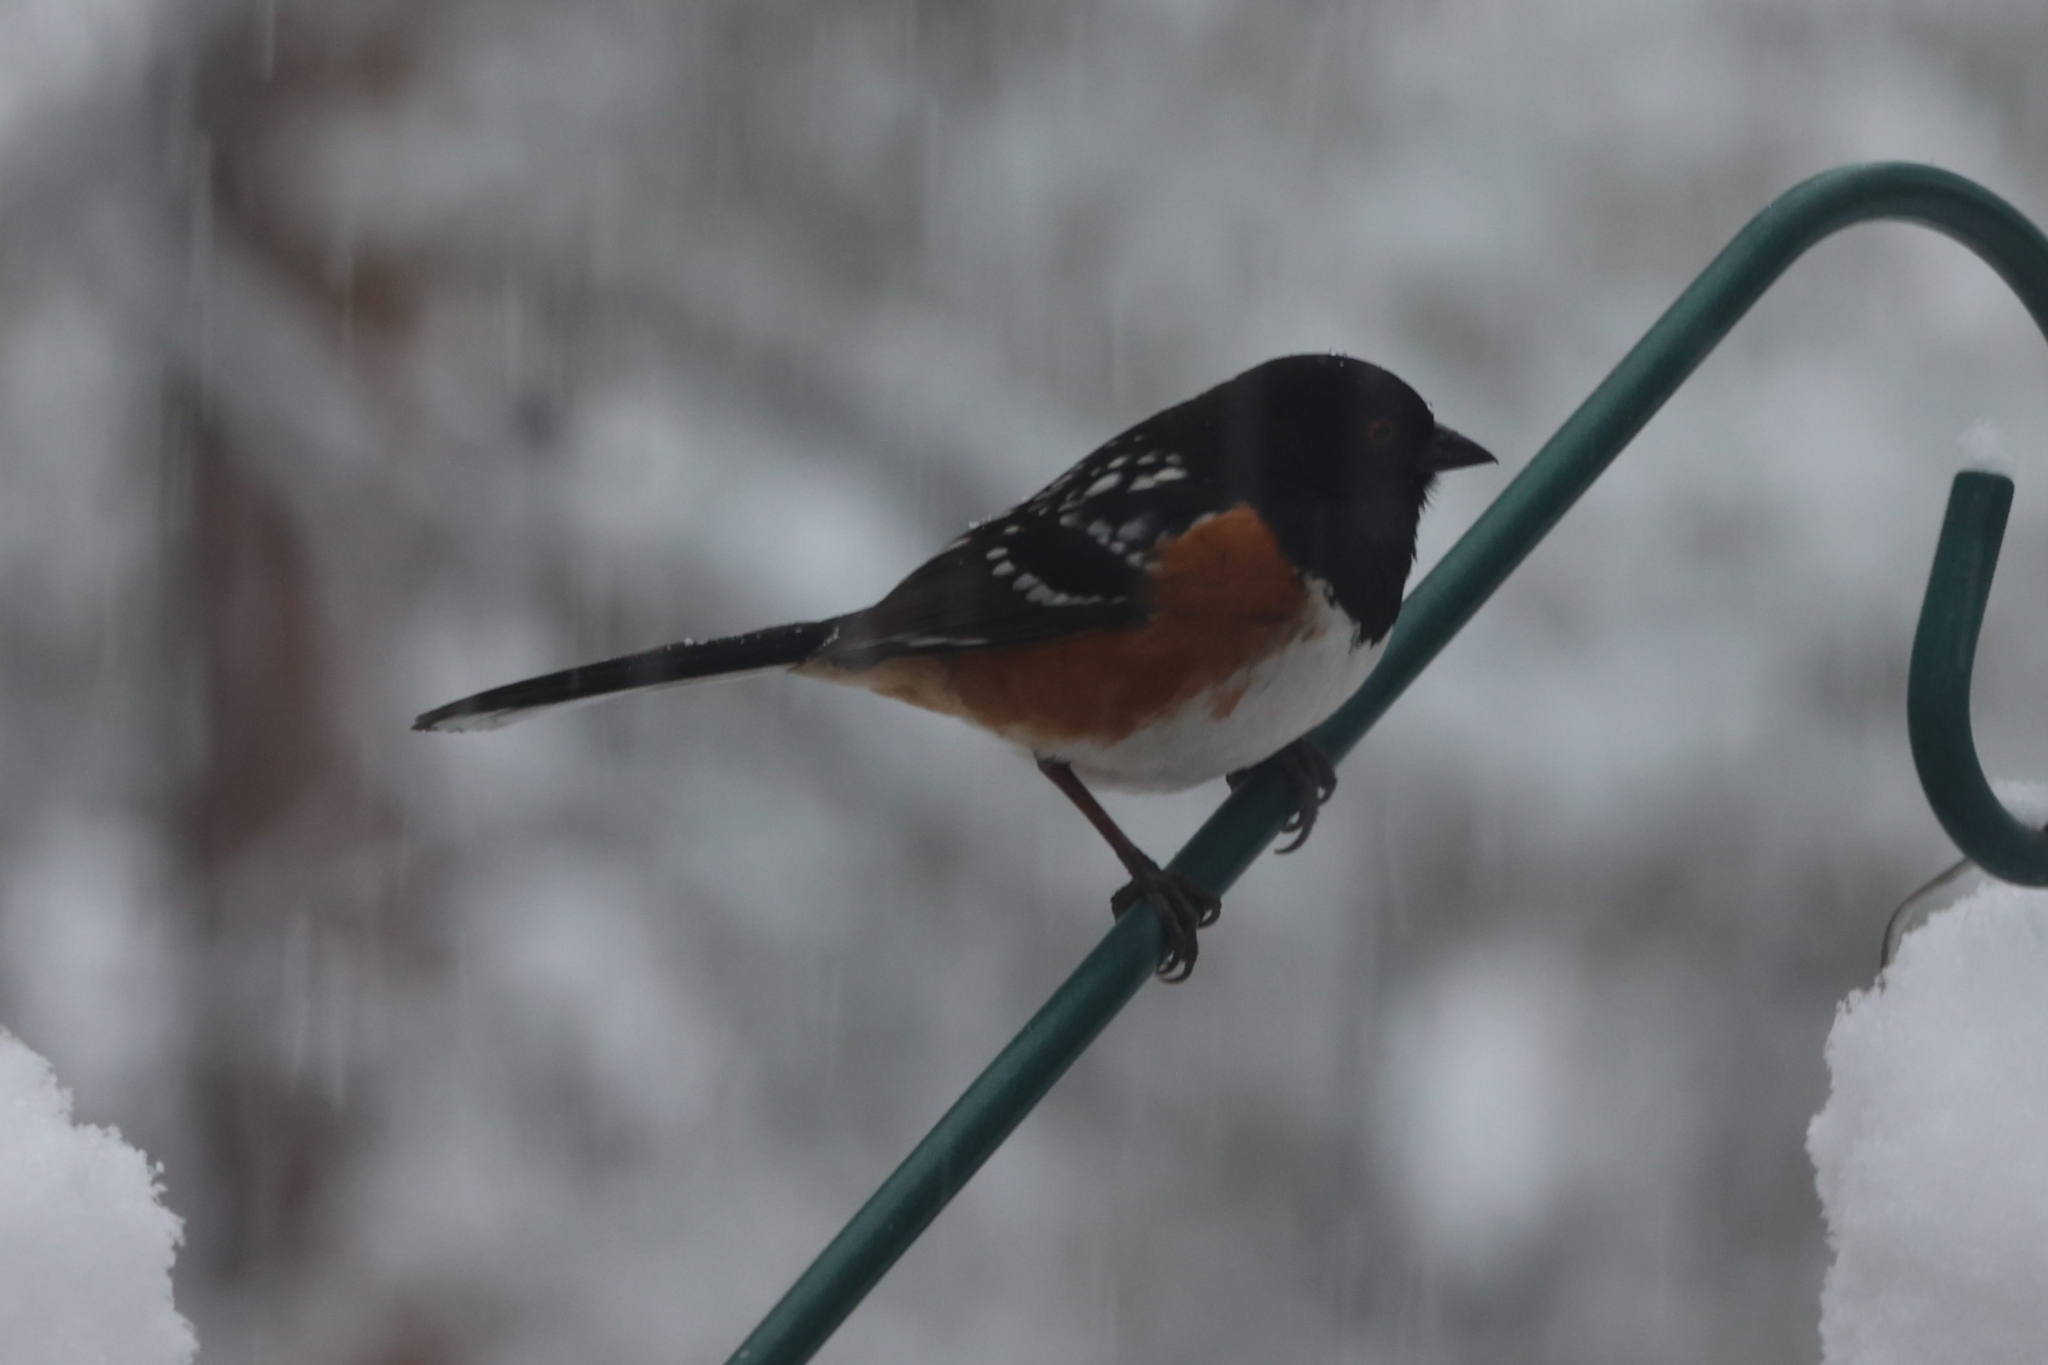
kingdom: Animalia
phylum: Chordata
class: Aves
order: Passeriformes
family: Passerellidae
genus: Pipilo
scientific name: Pipilo maculatus
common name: Spotted towhee
